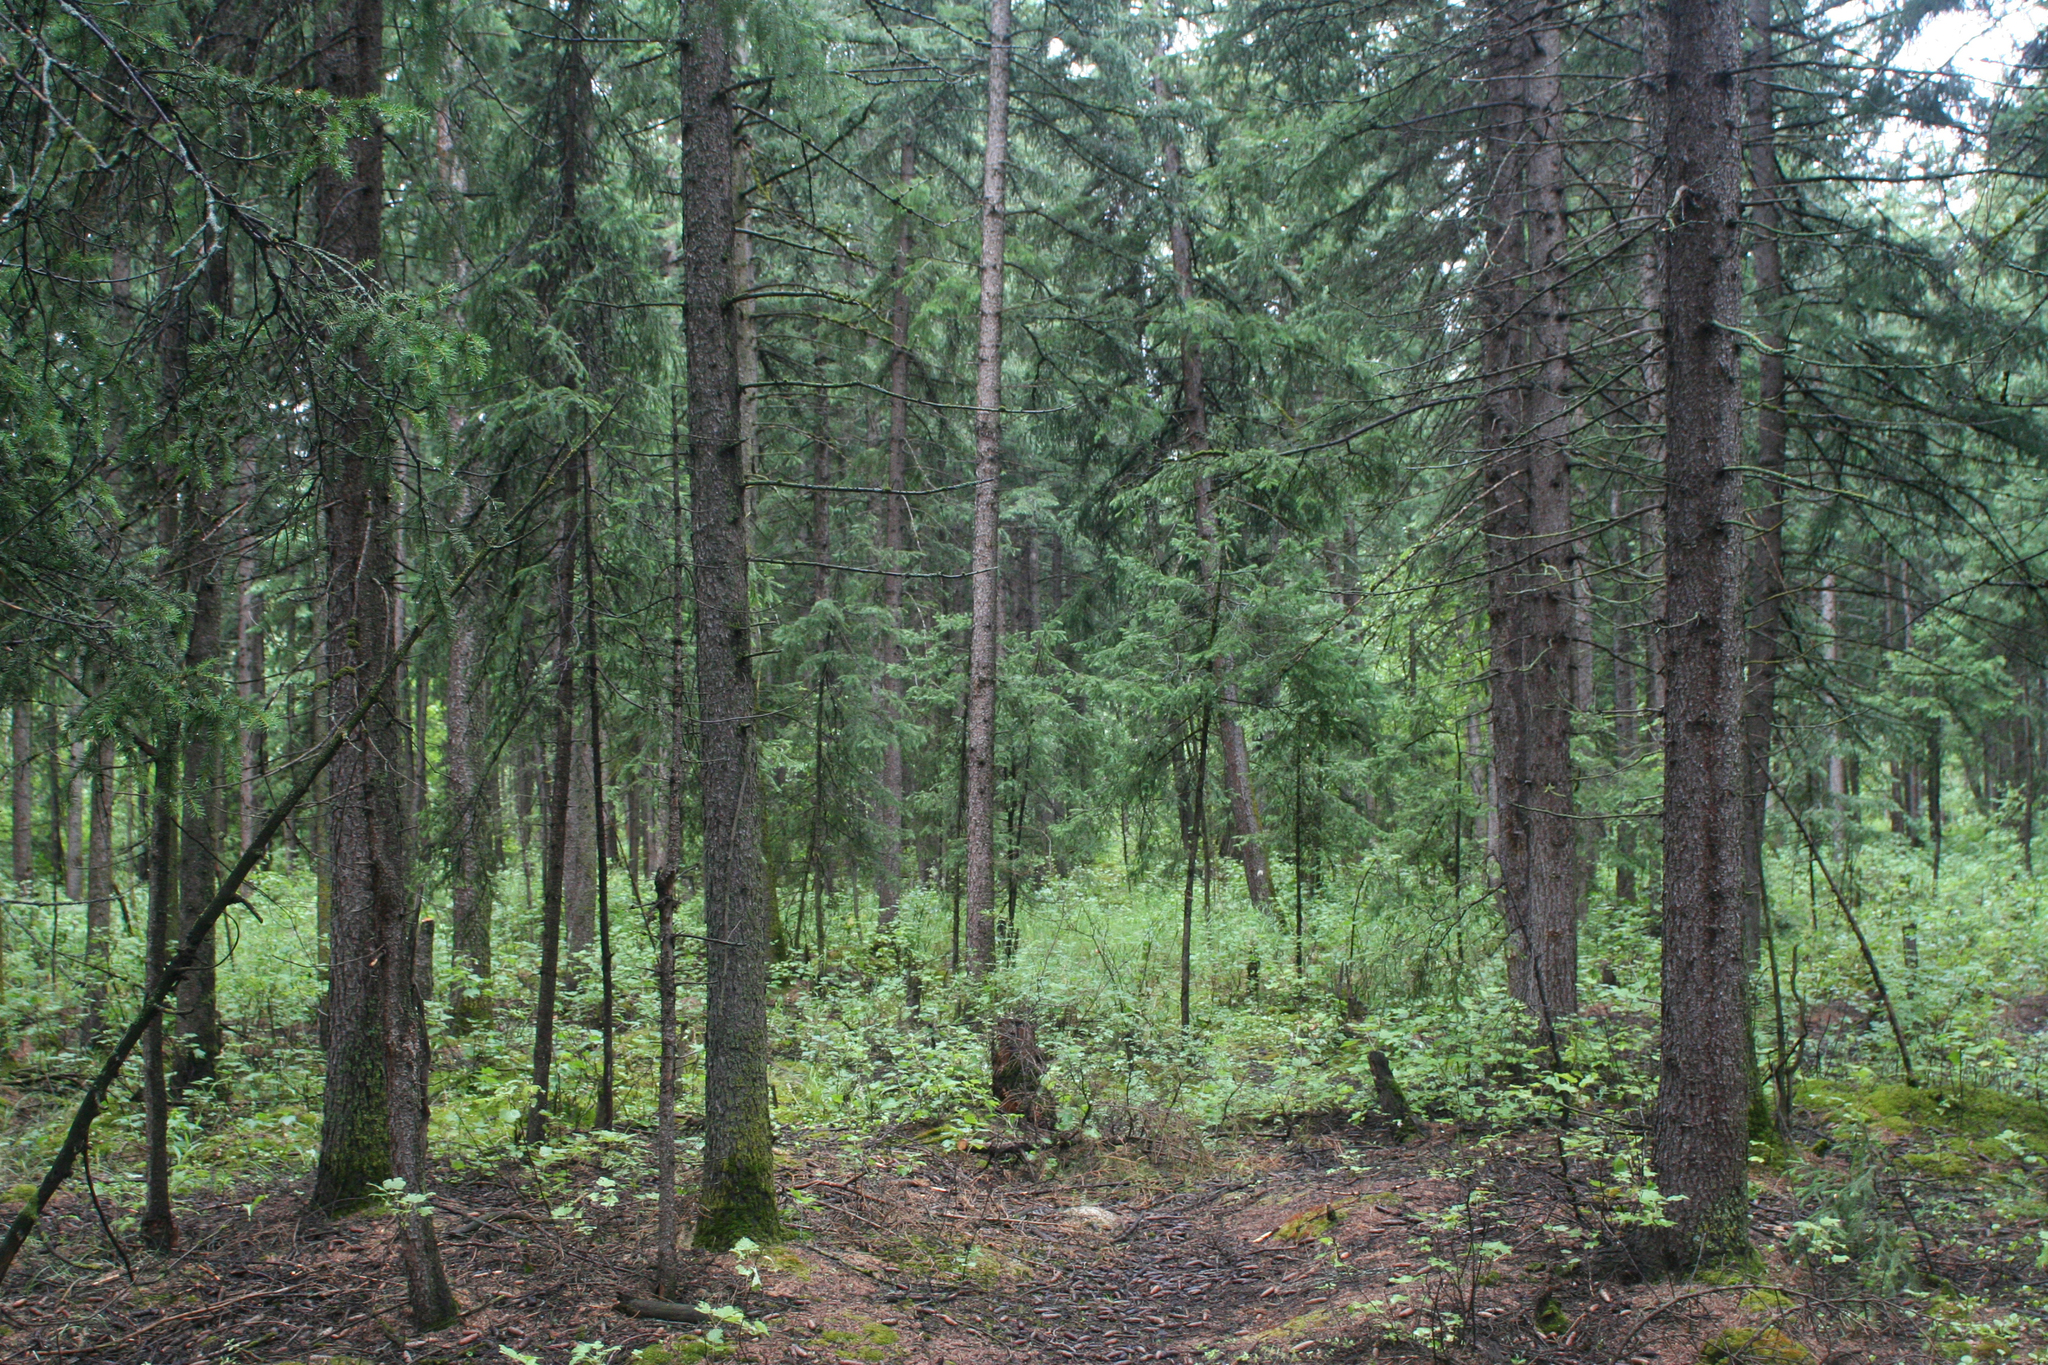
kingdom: Plantae
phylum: Tracheophyta
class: Pinopsida
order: Pinales
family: Pinaceae
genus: Picea
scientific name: Picea obovata
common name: Siberian spruce
